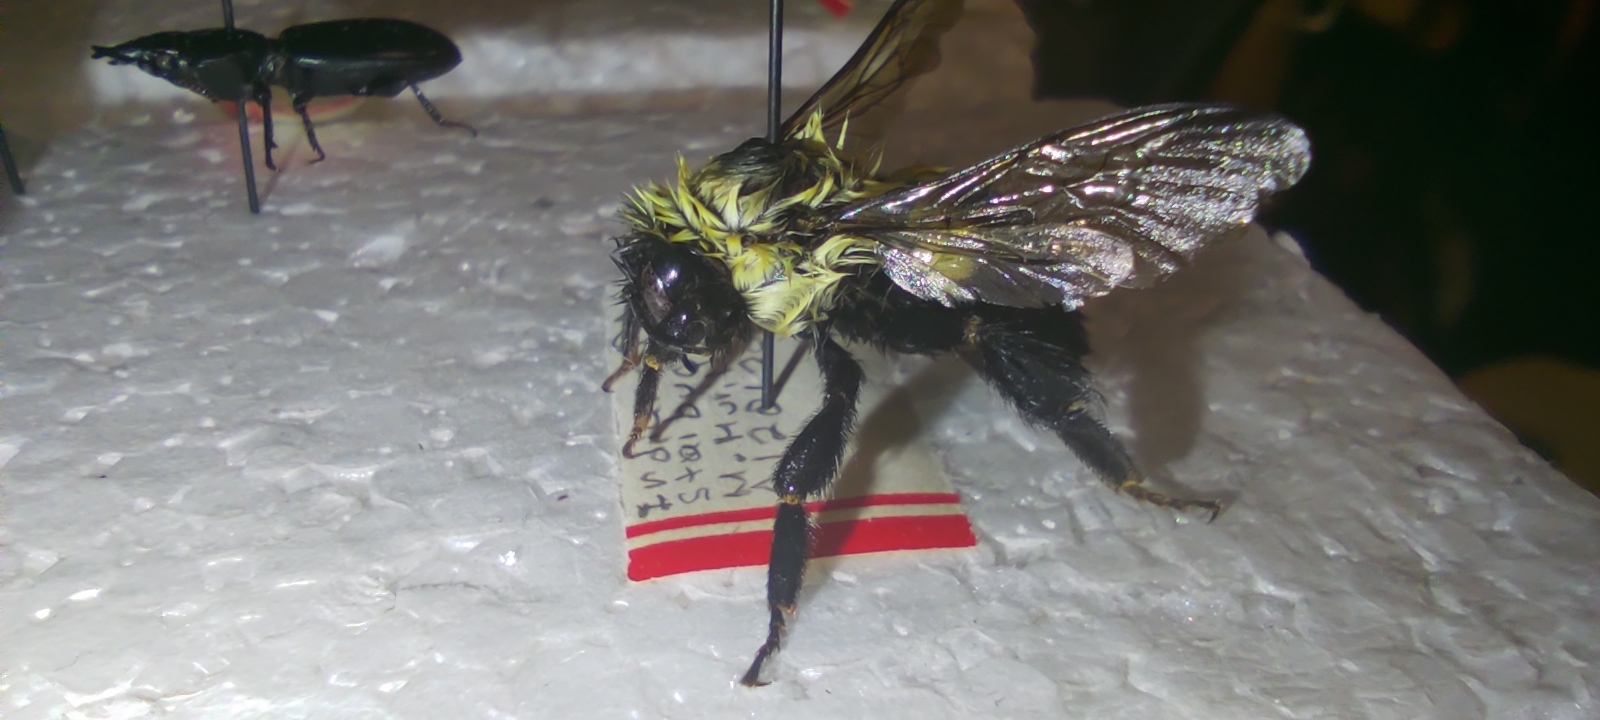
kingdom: Animalia
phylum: Arthropoda
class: Insecta
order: Hymenoptera
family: Apidae
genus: Bombus
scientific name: Bombus impatiens
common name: Common eastern bumble bee
